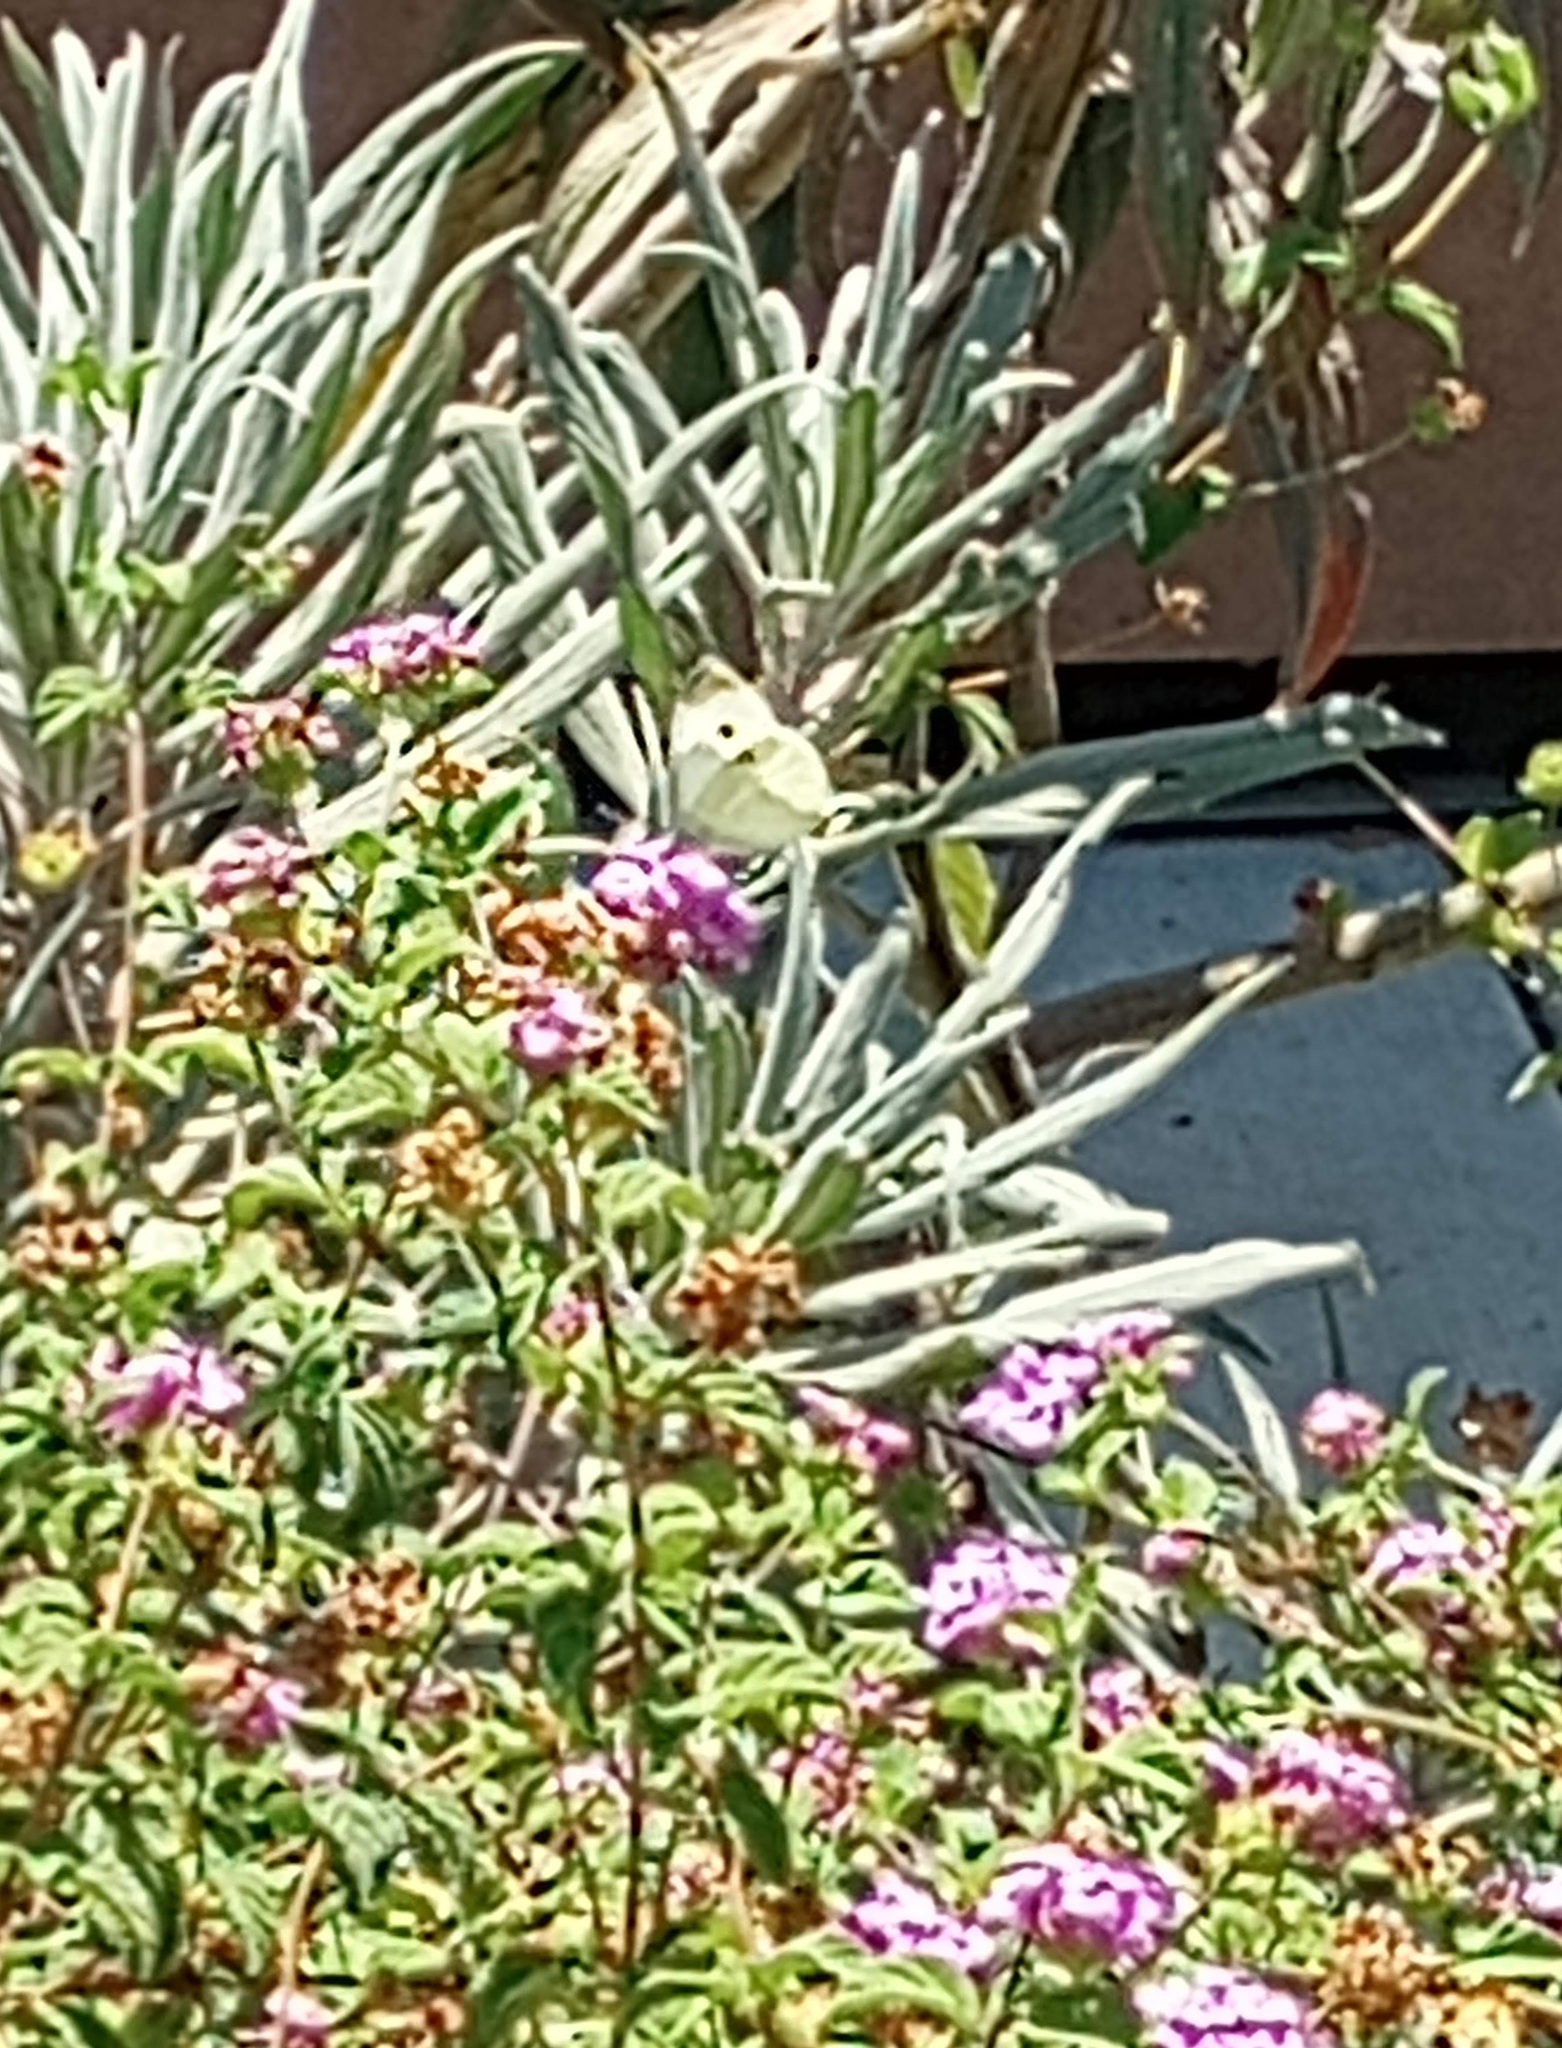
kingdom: Animalia
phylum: Arthropoda
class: Insecta
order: Lepidoptera
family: Pieridae
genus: Pieris
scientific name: Pieris rapae
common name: Small white
